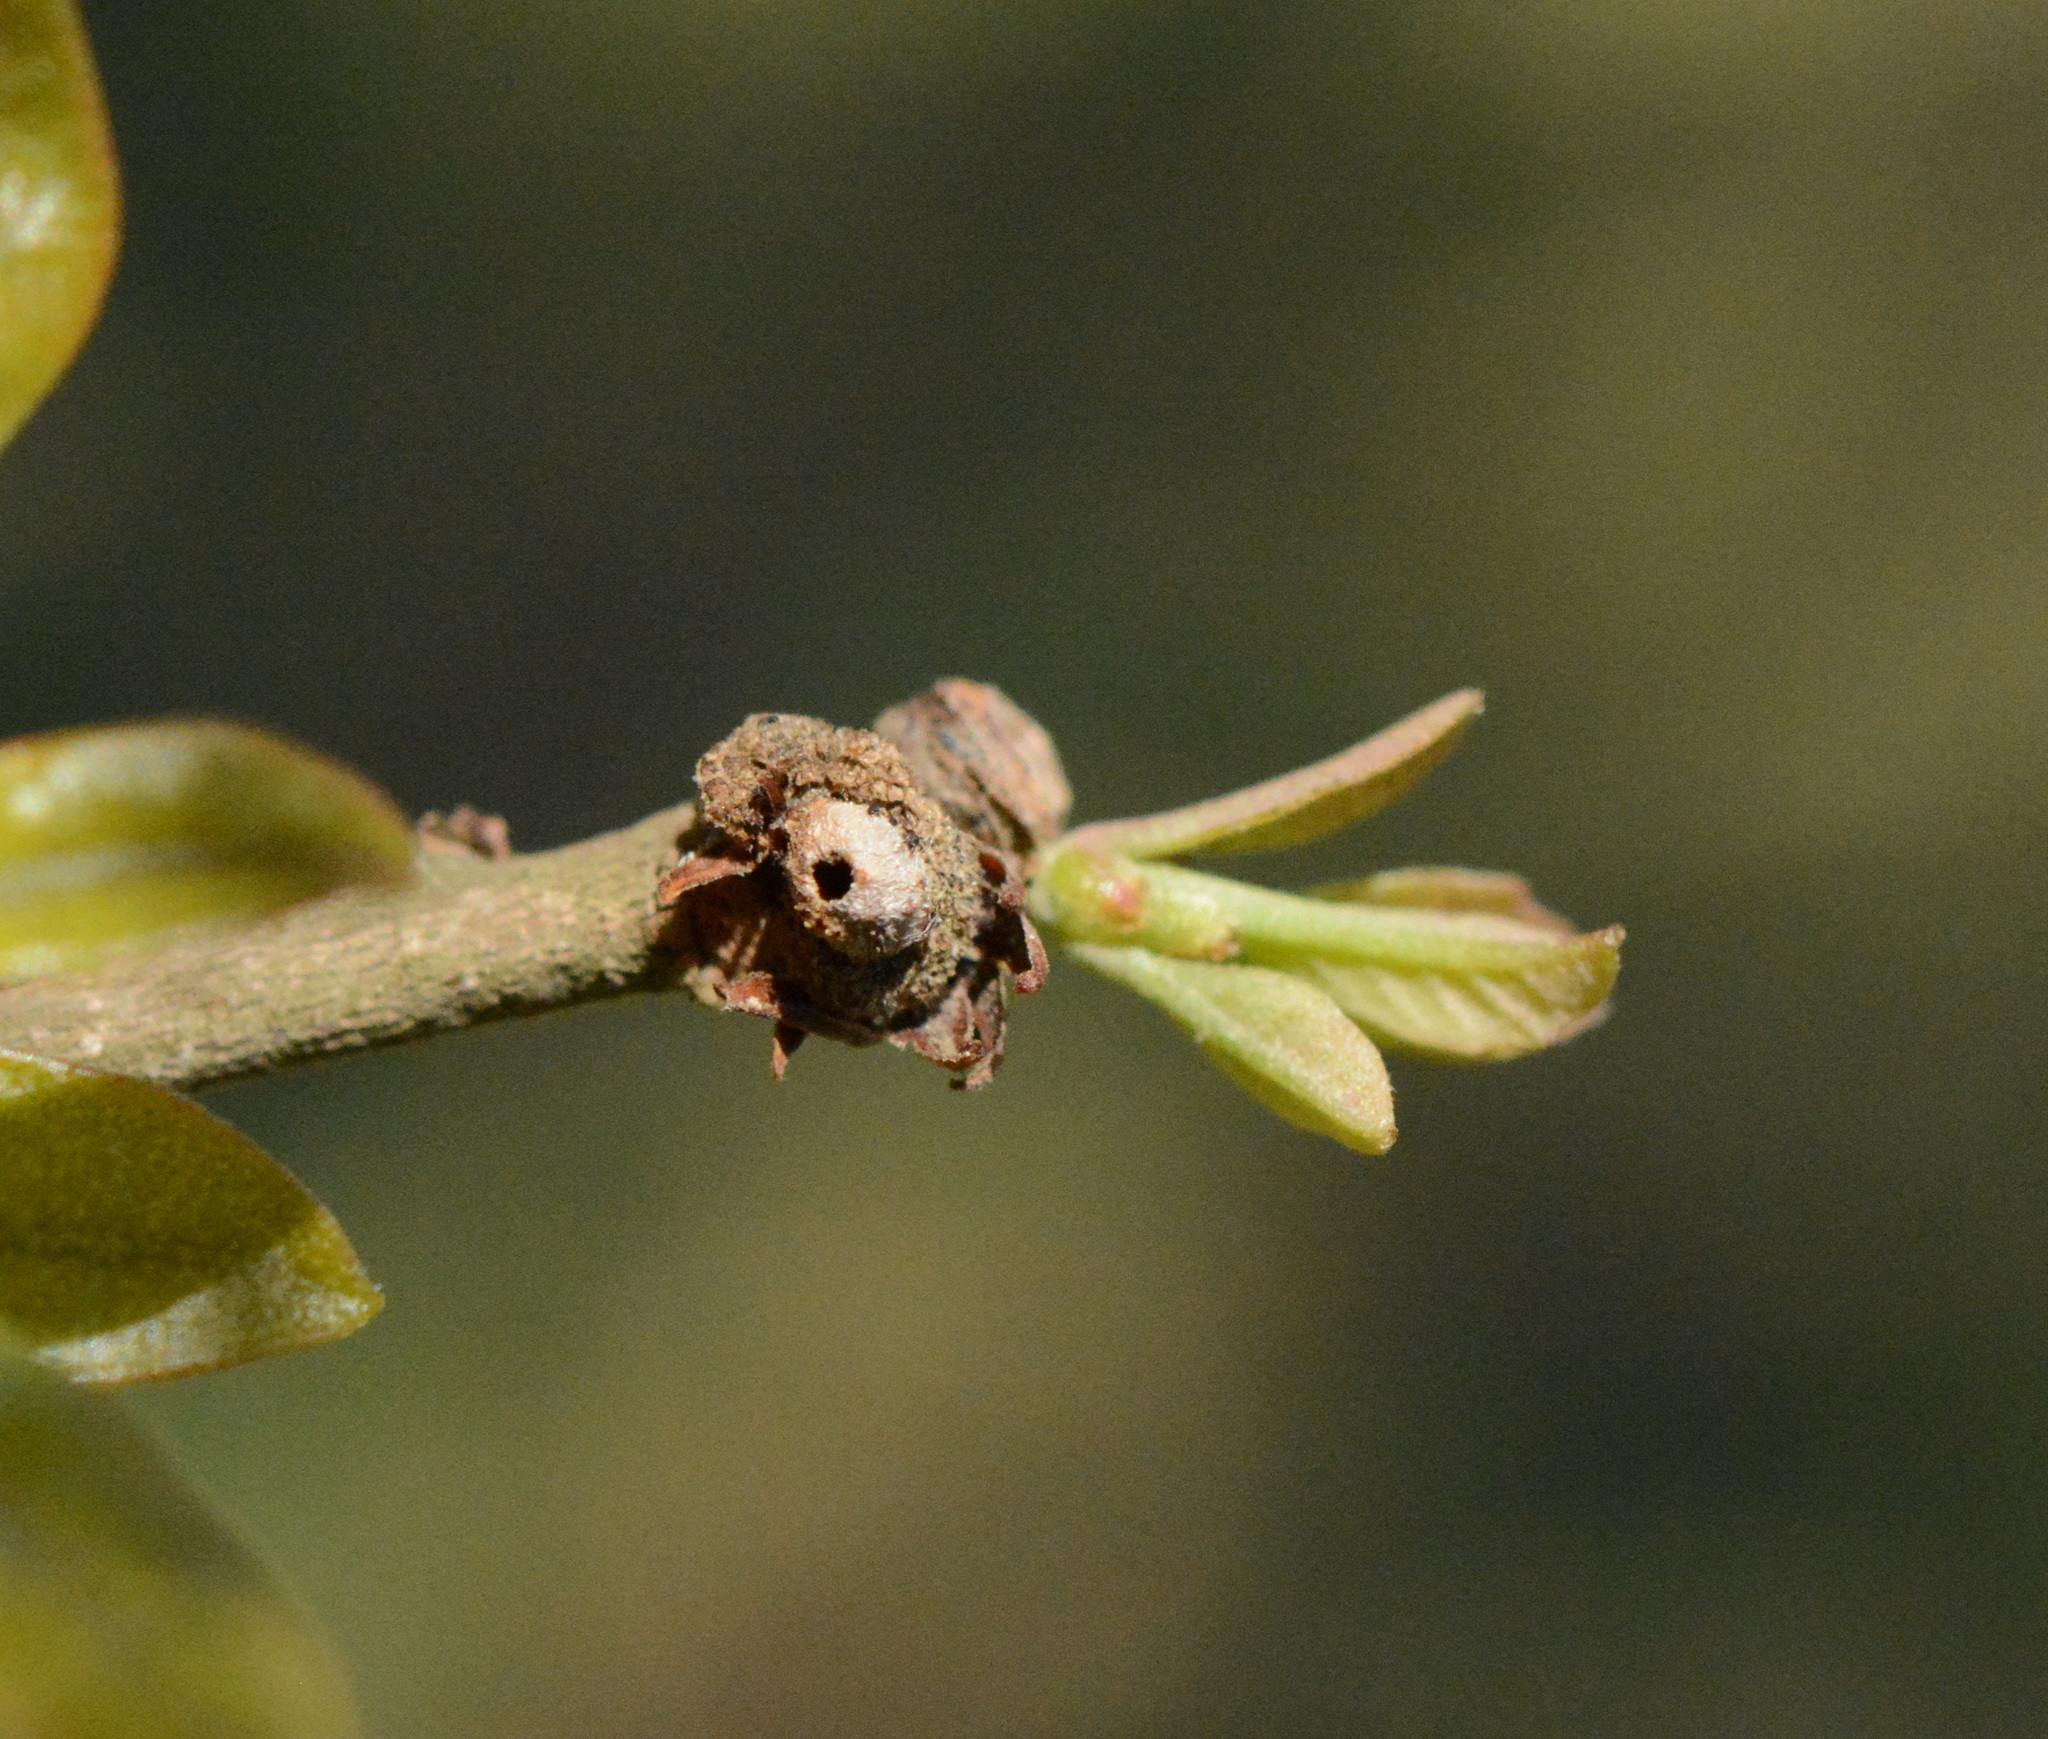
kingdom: Animalia
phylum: Arthropoda
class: Insecta
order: Hymenoptera
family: Cynipidae
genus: Andricus
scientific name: Andricus quercusfoliatus
